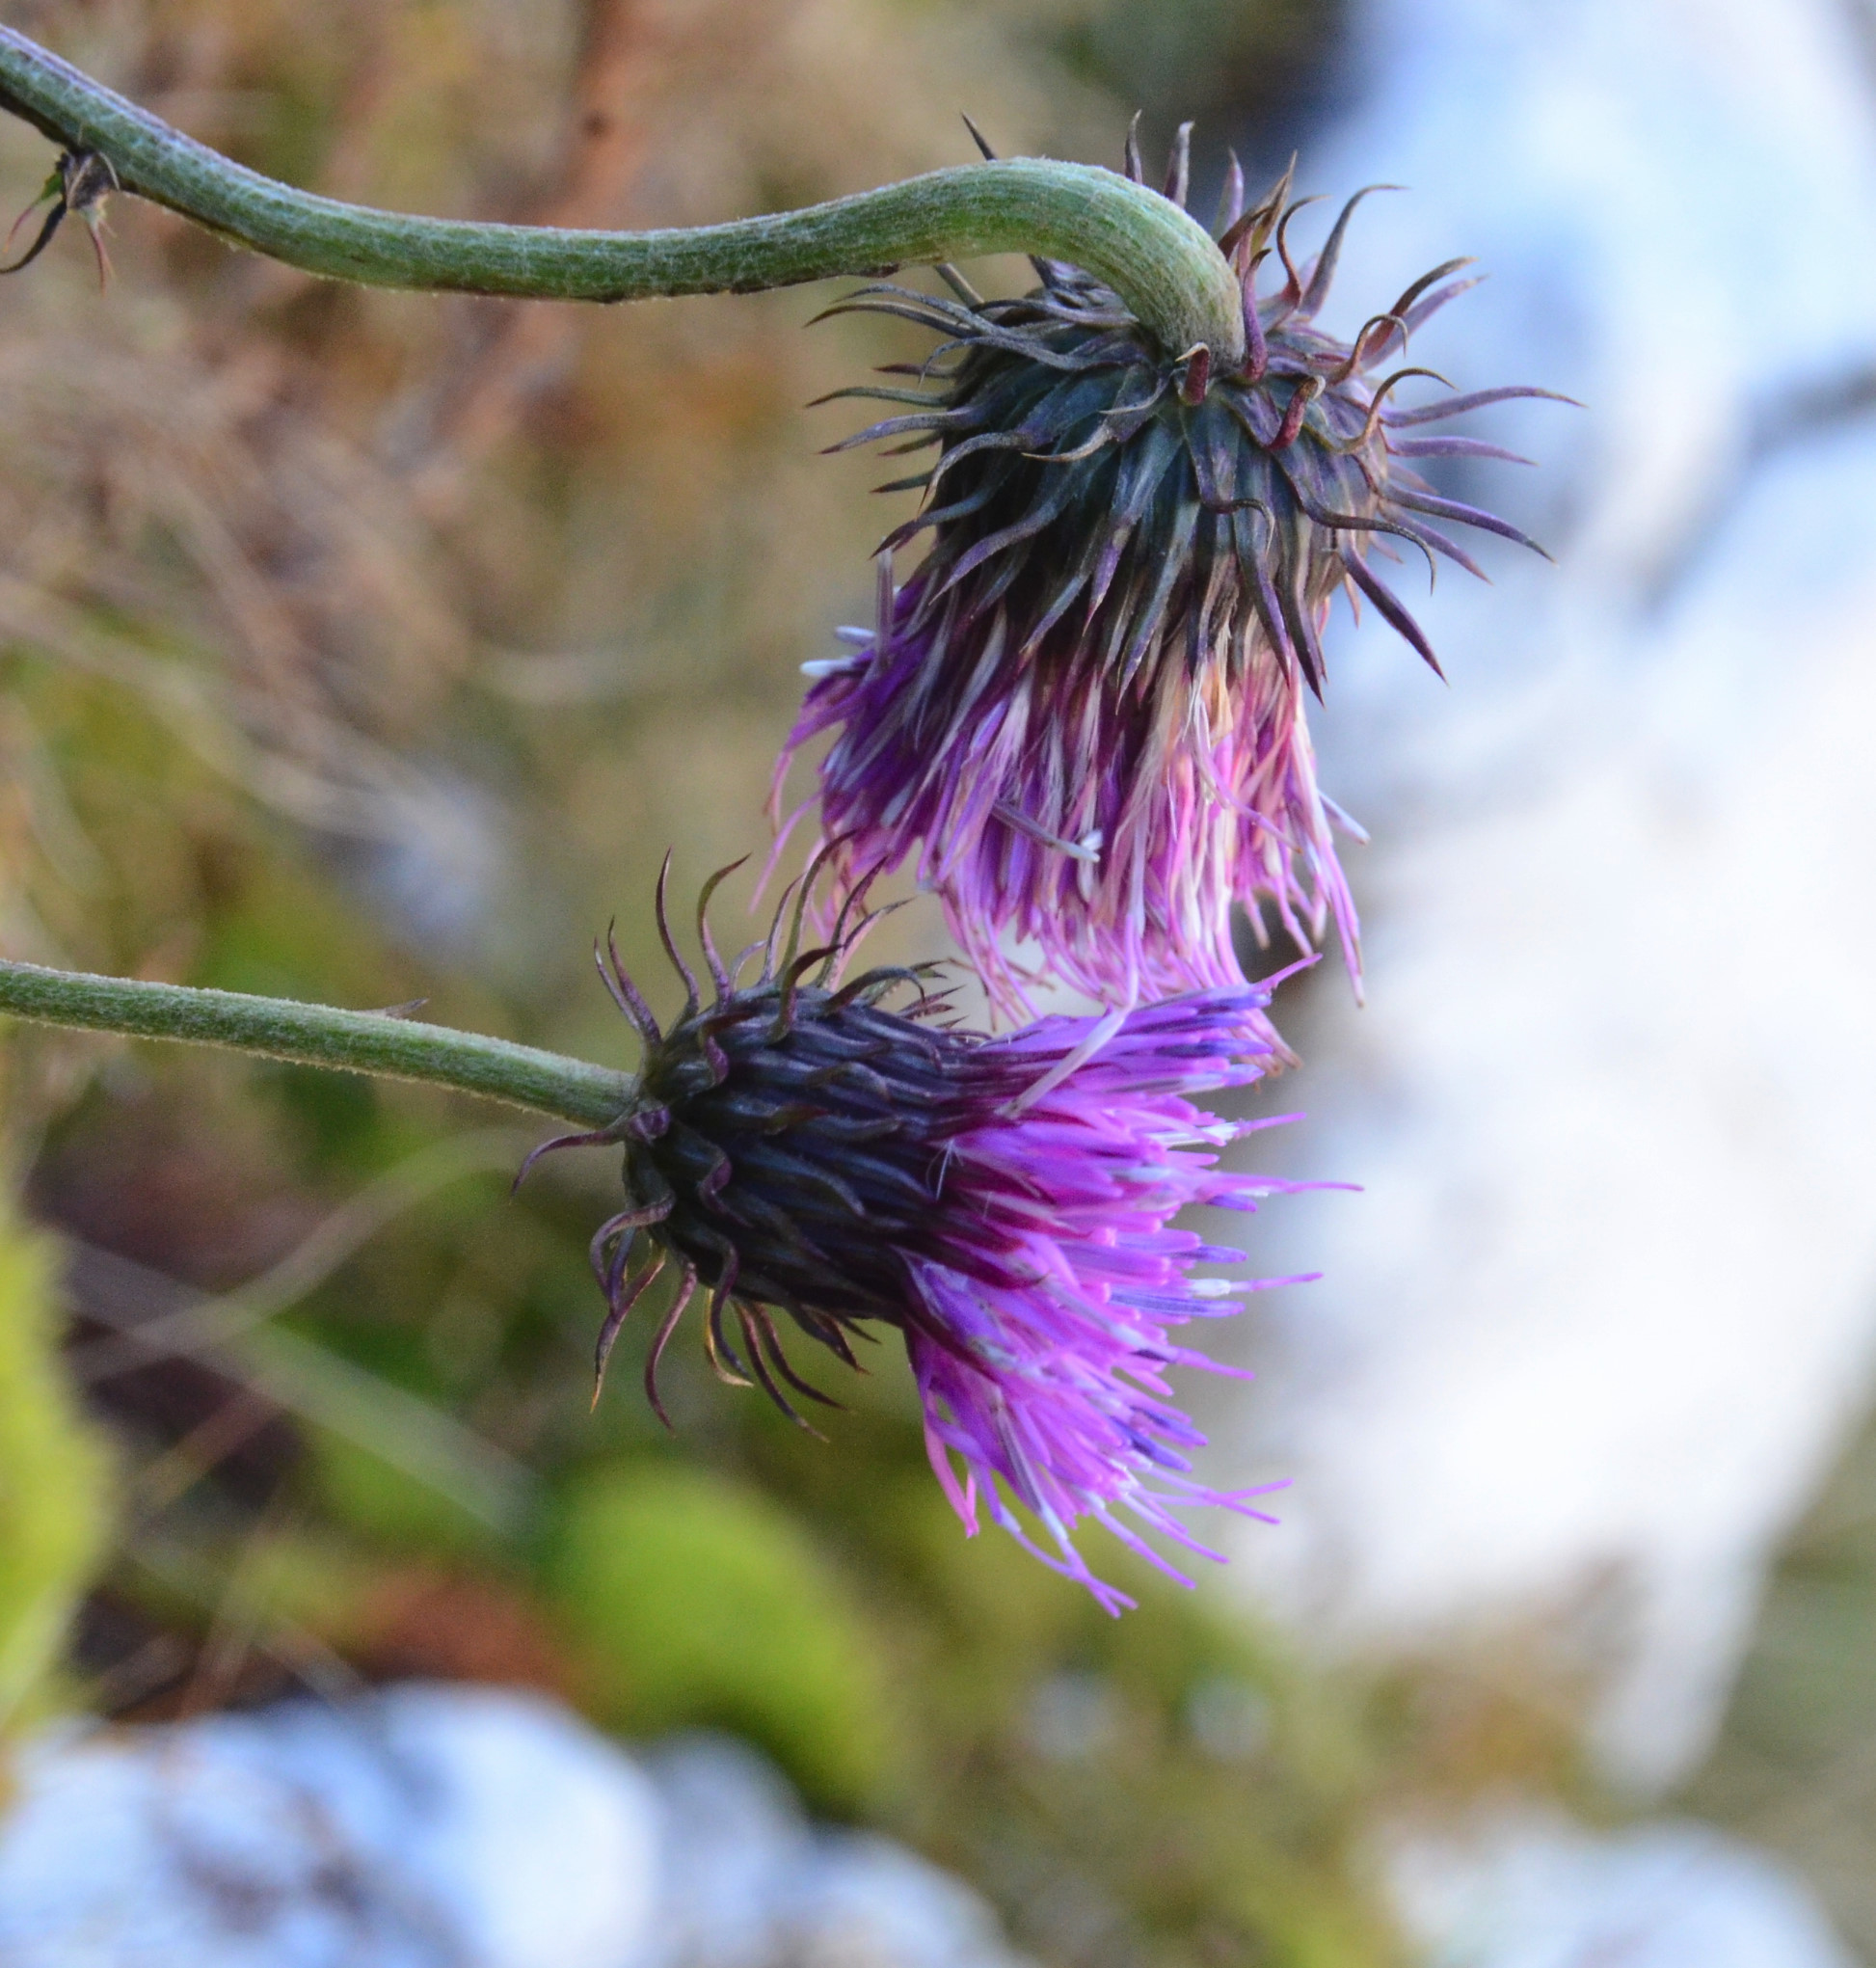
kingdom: Plantae
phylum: Tracheophyta
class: Magnoliopsida
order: Asterales
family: Asteraceae
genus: Carduus
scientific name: Carduus defloratus
